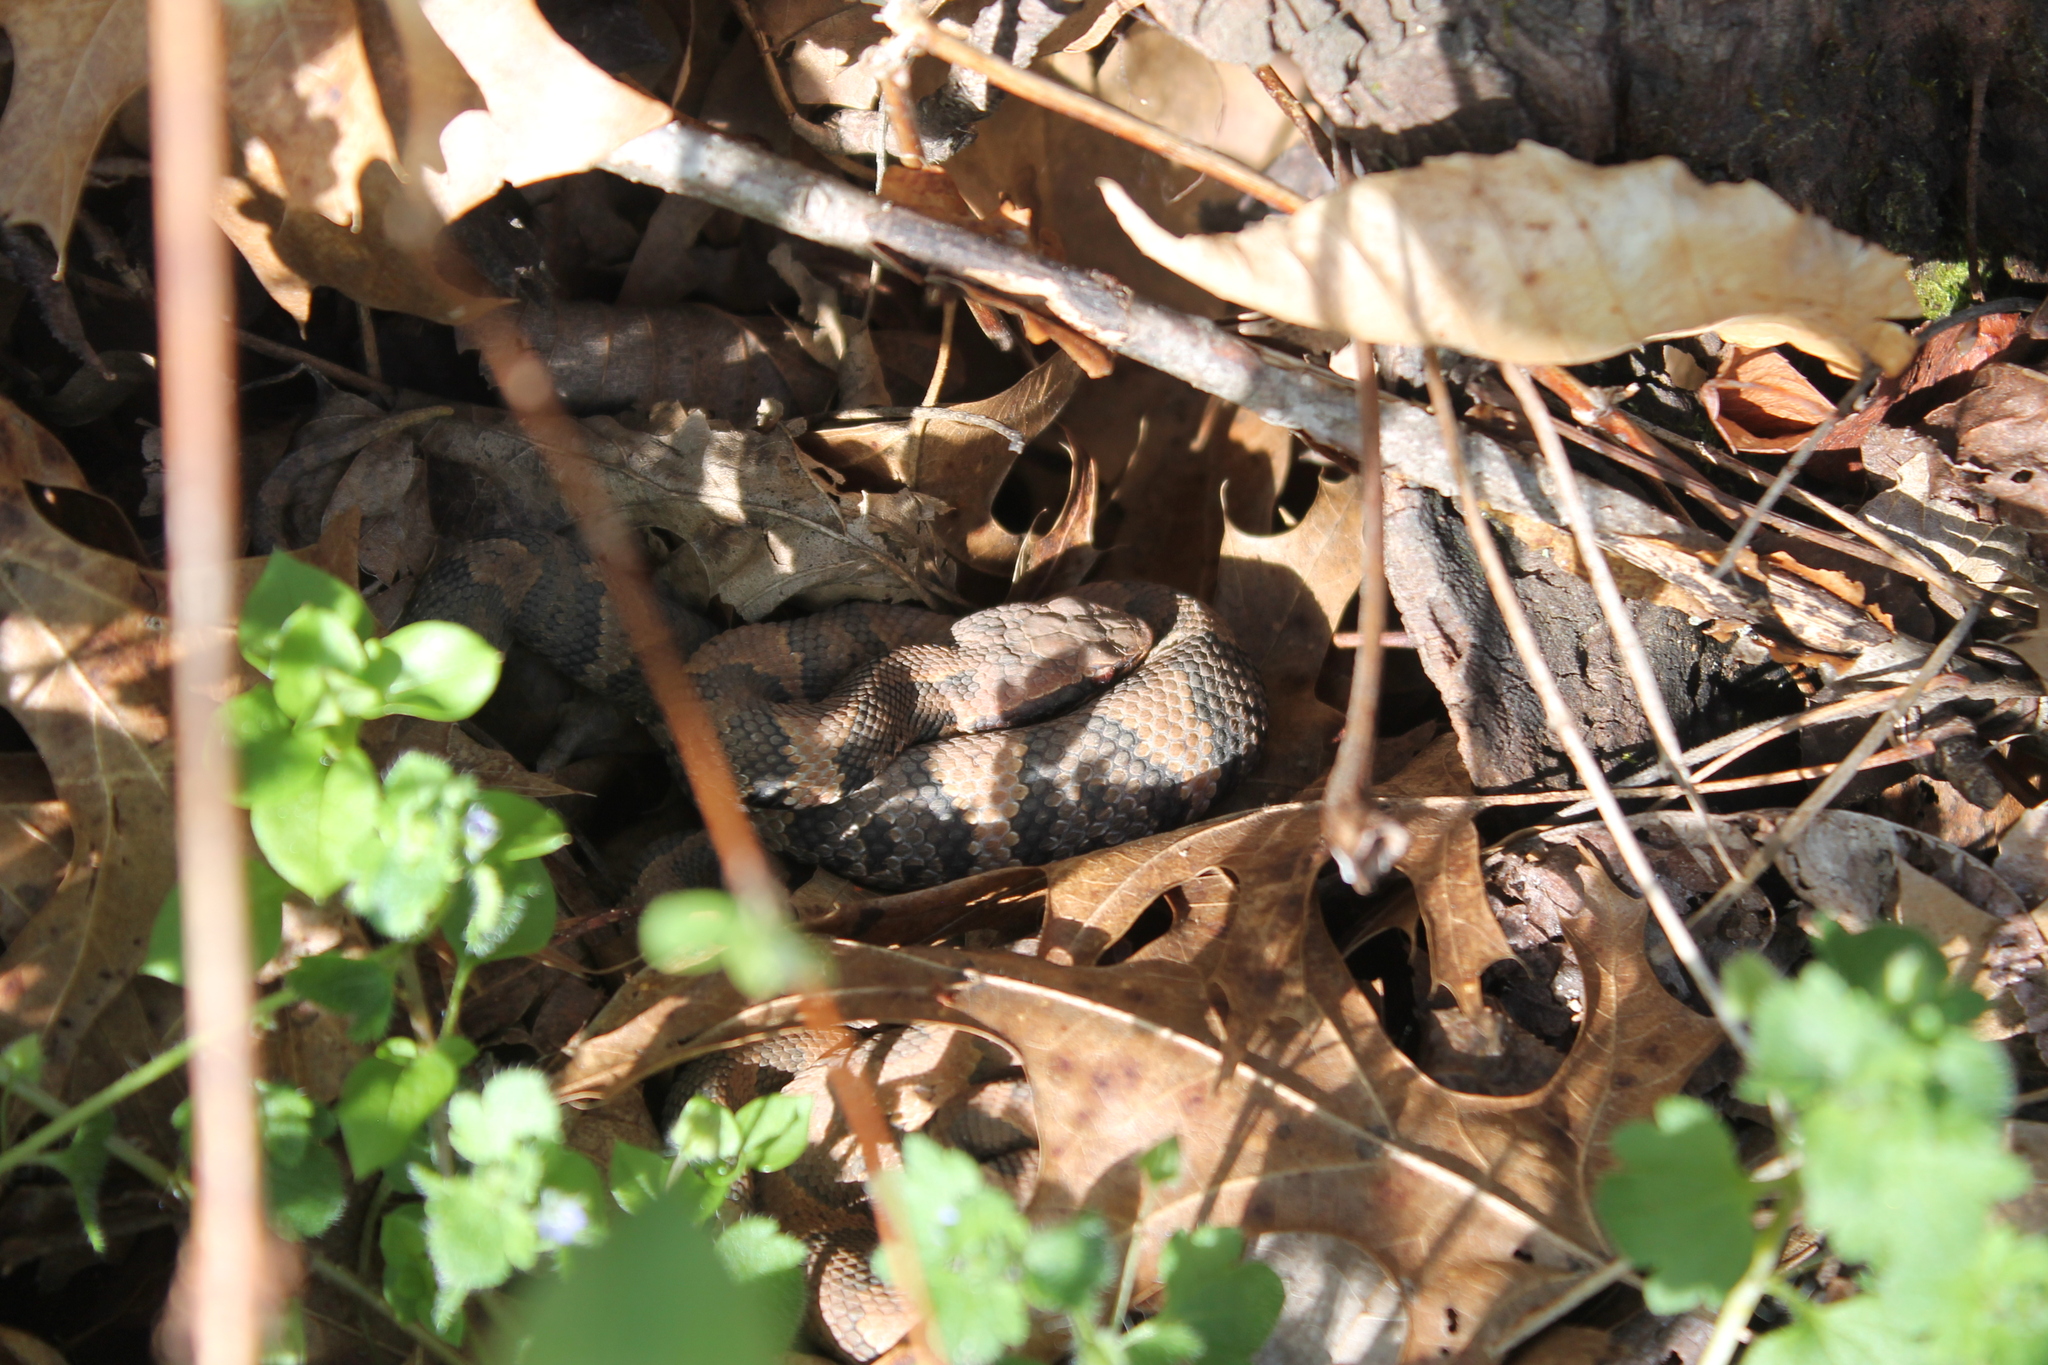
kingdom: Animalia
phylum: Chordata
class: Squamata
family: Viperidae
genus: Agkistrodon
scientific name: Agkistrodon piscivorus
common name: Cottonmouth
